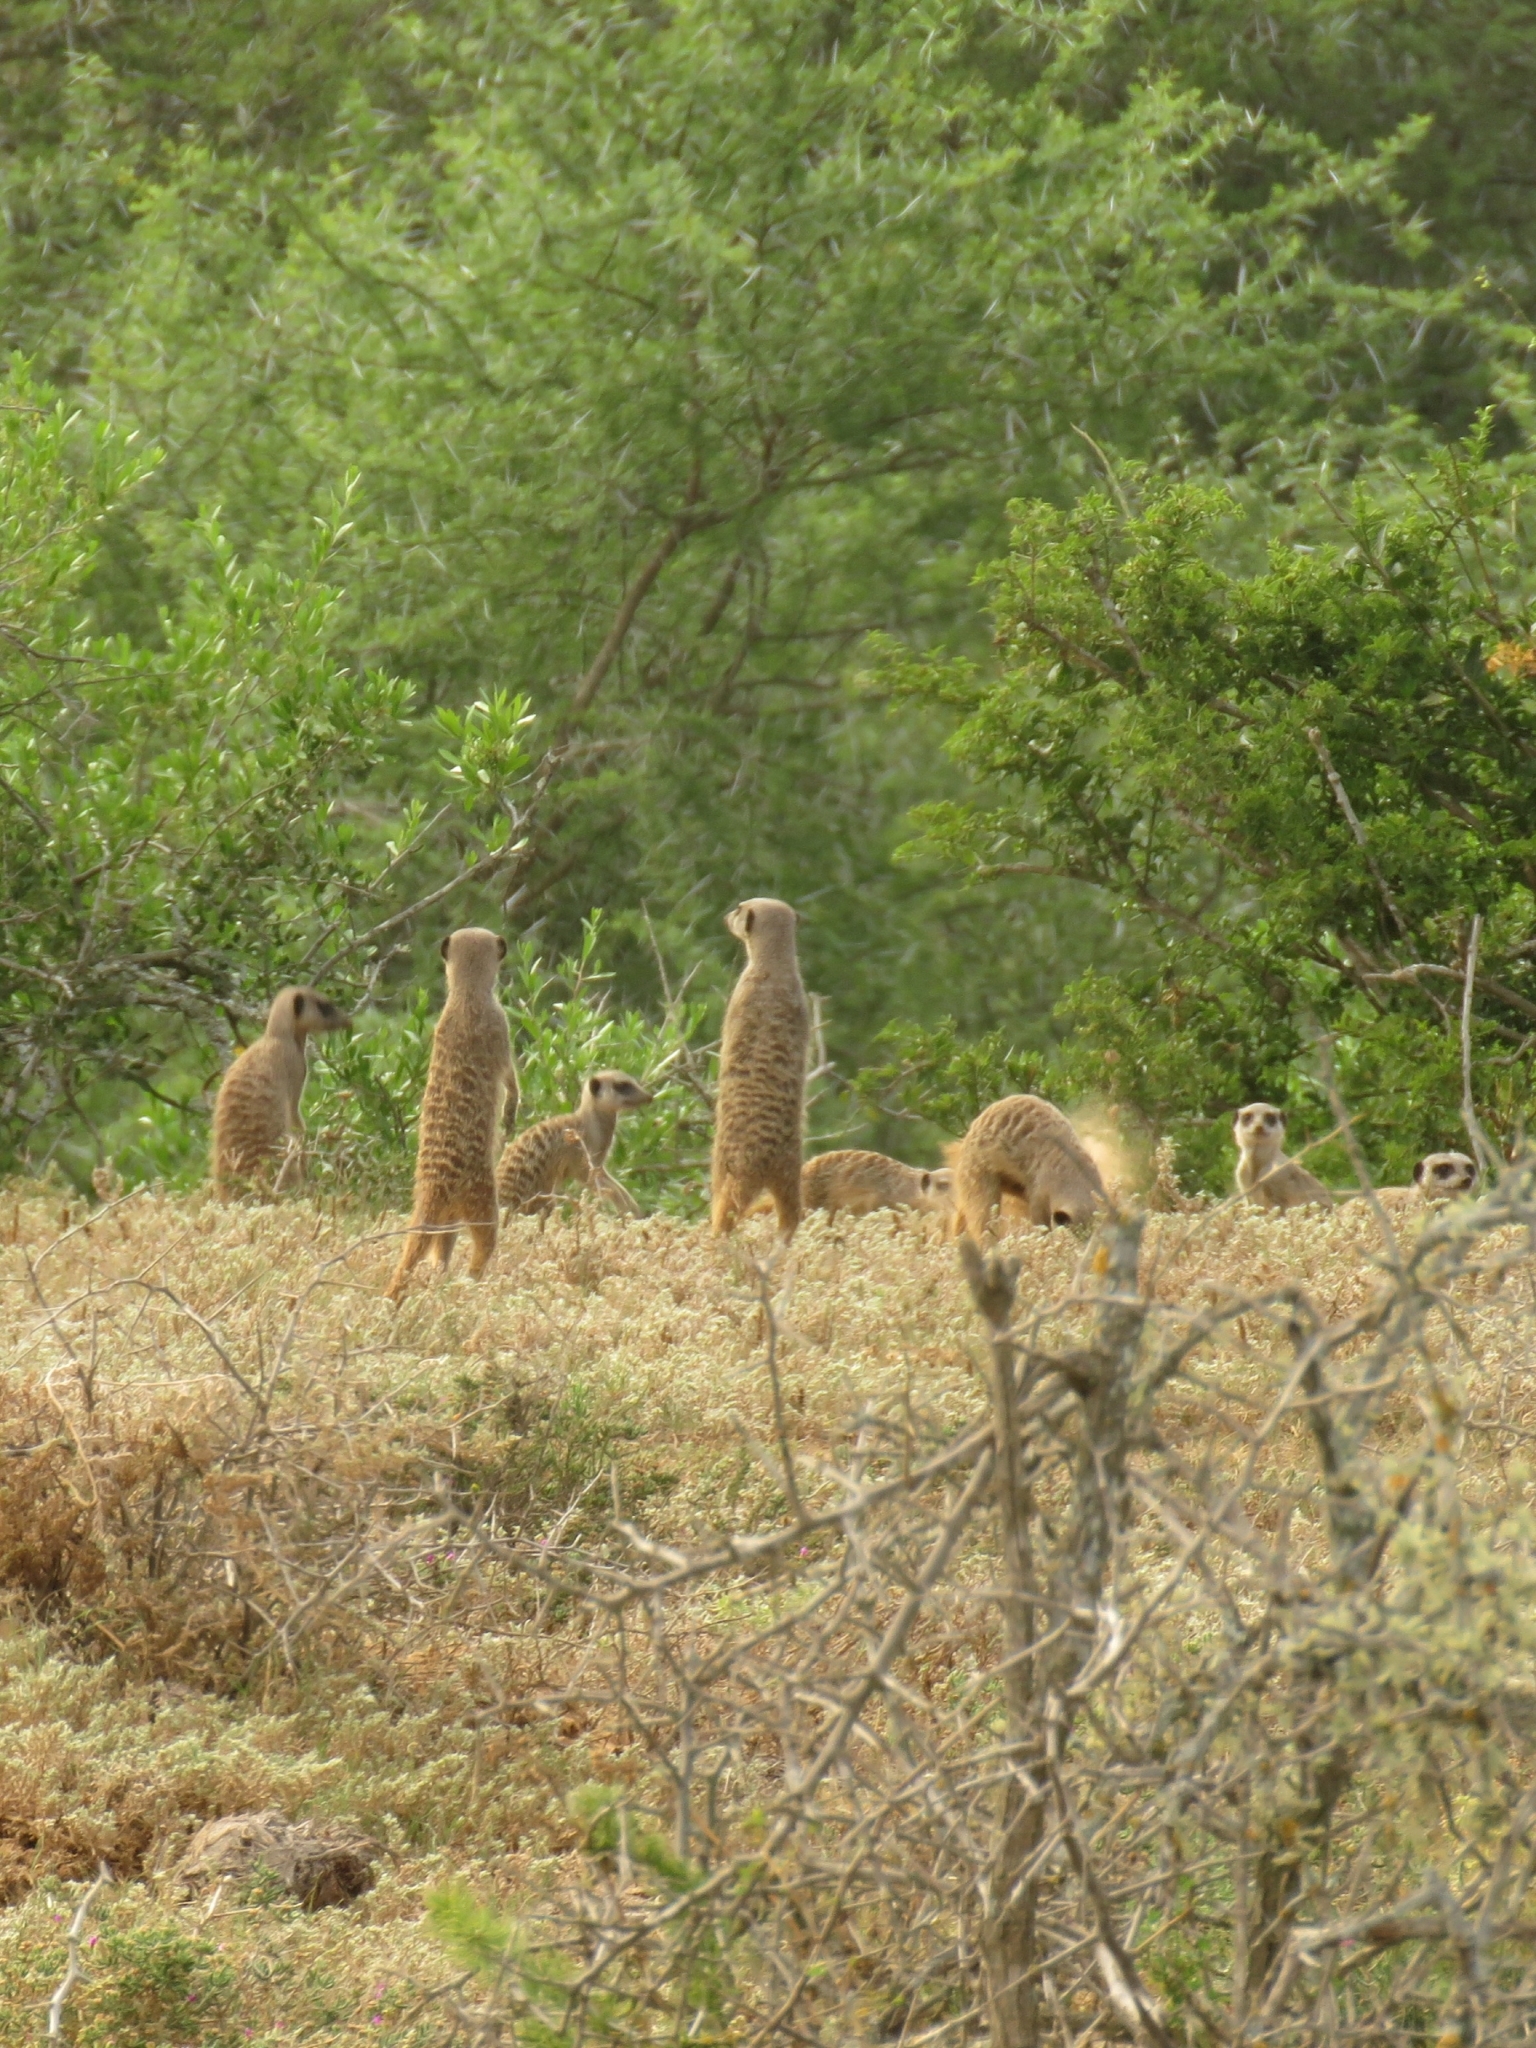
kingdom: Animalia
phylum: Chordata
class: Mammalia
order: Carnivora
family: Herpestidae
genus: Suricata
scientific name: Suricata suricatta
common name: Meerkat
